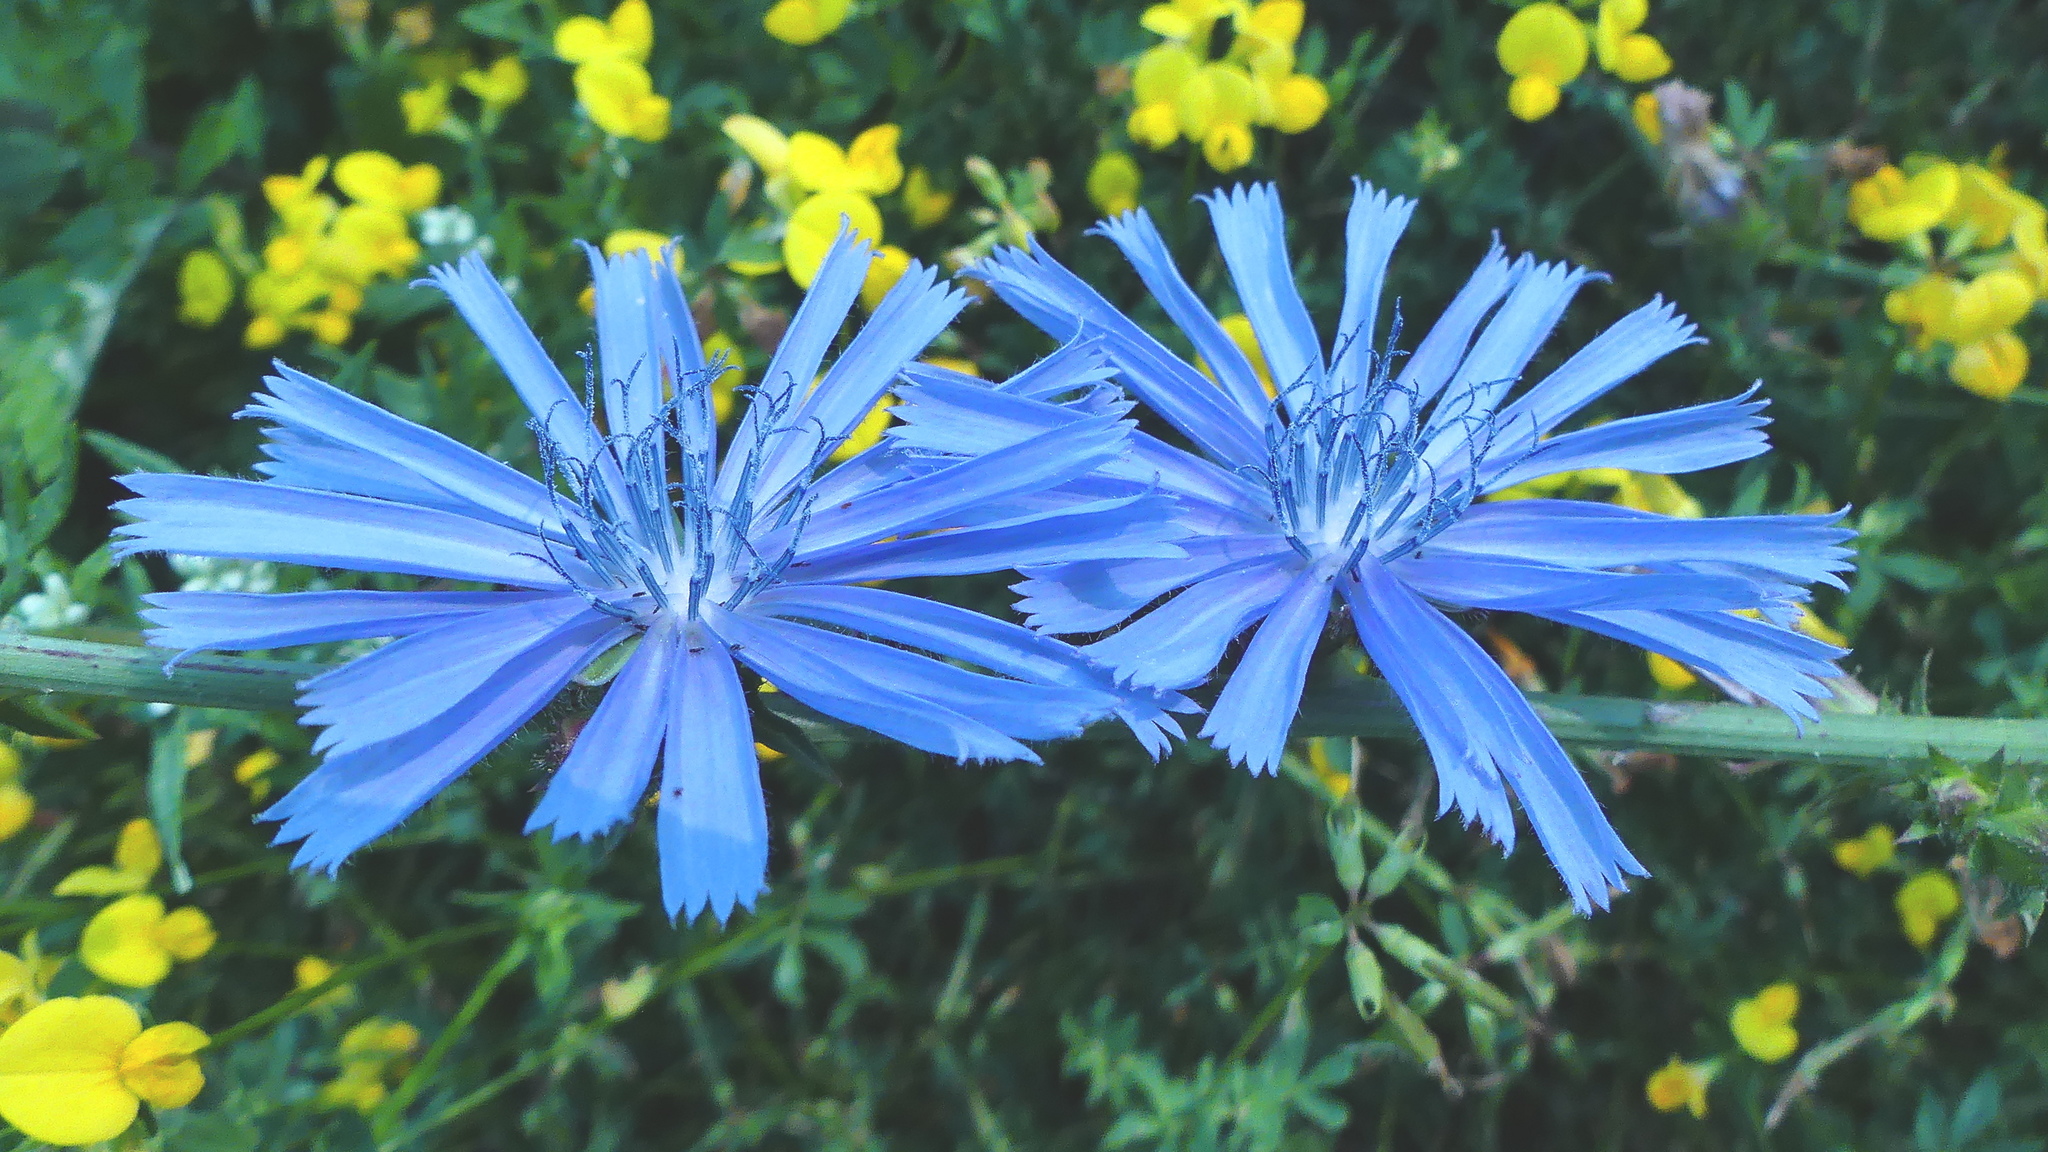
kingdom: Plantae
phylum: Tracheophyta
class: Magnoliopsida
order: Asterales
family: Asteraceae
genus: Cichorium
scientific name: Cichorium intybus
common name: Chicory
